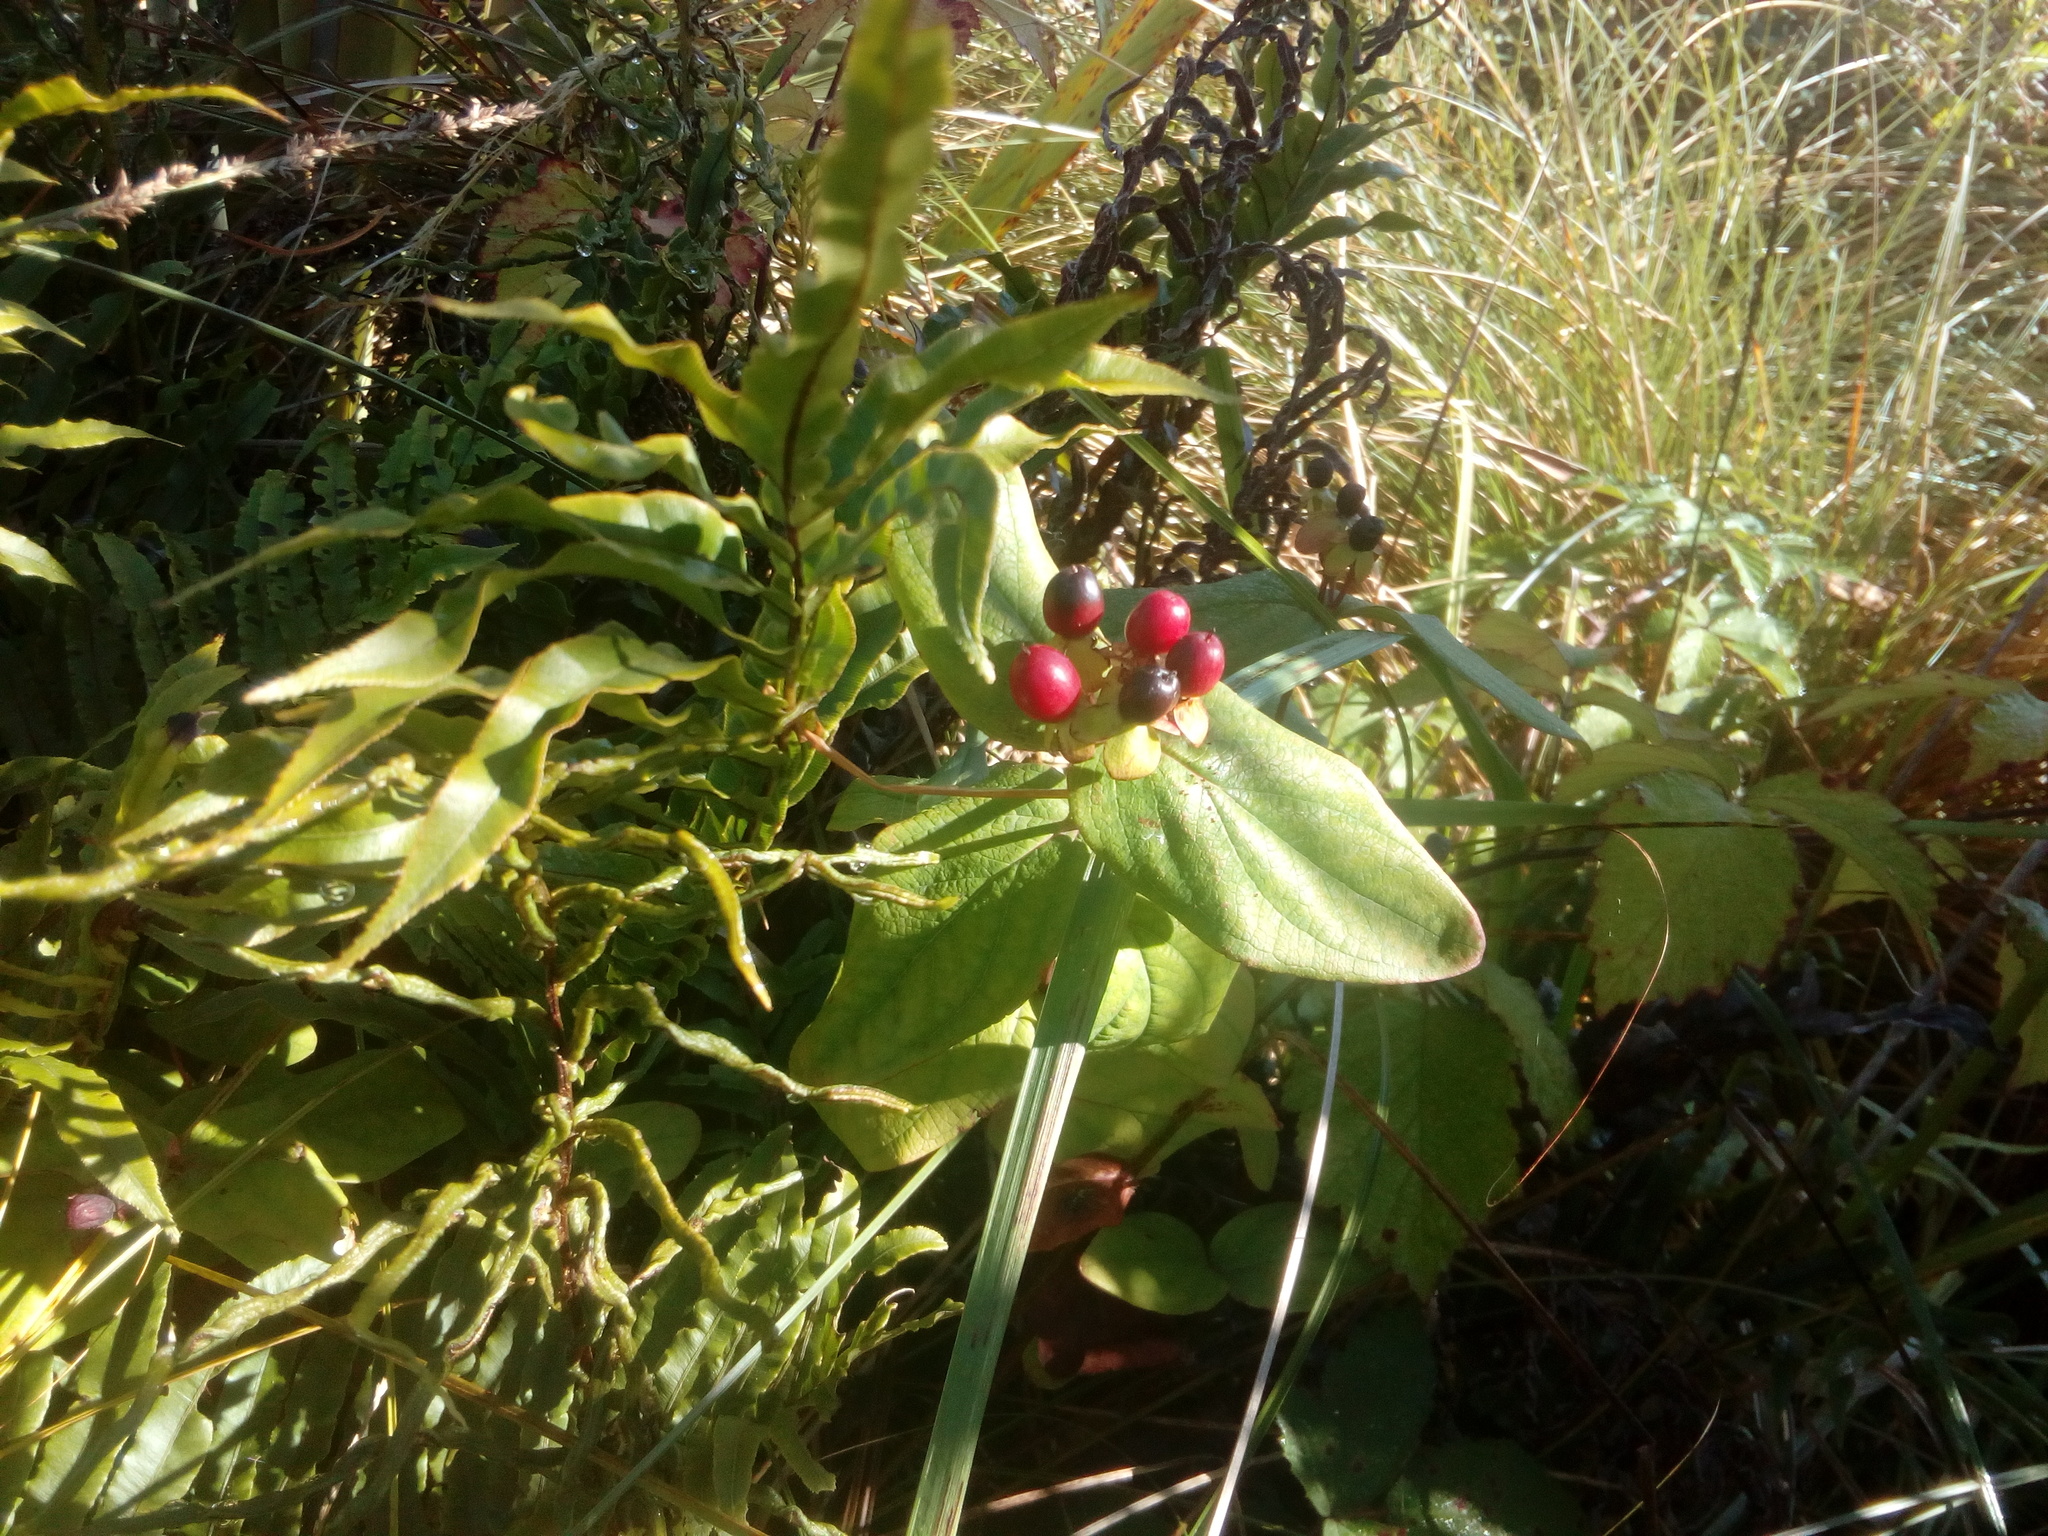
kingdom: Plantae
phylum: Tracheophyta
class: Magnoliopsida
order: Malpighiales
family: Hypericaceae
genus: Hypericum
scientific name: Hypericum androsaemum
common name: Sweet-amber
